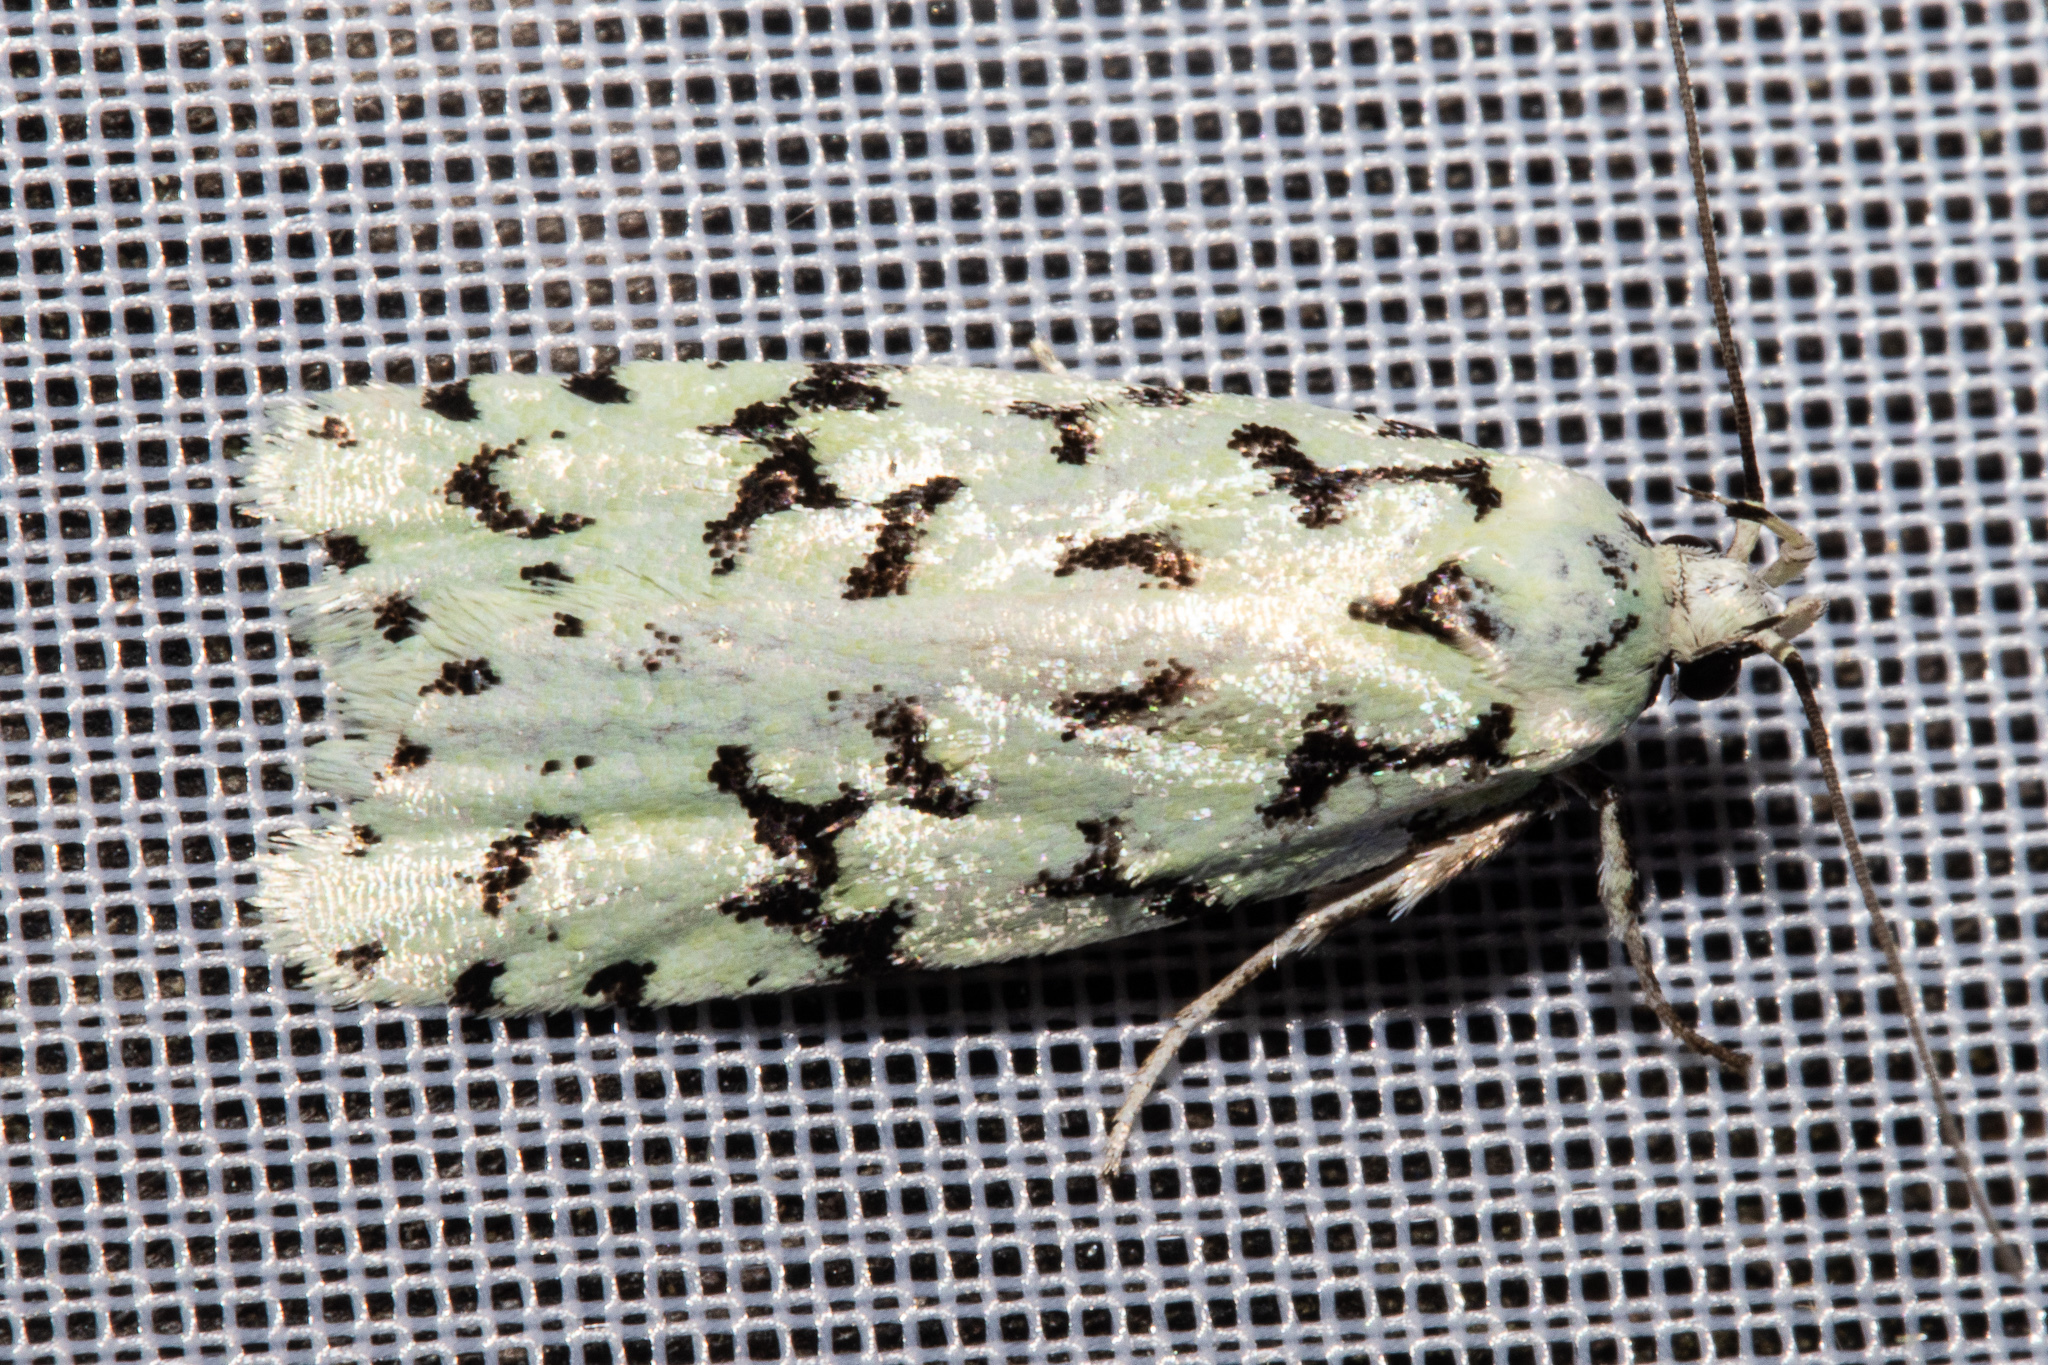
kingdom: Animalia
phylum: Arthropoda
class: Insecta
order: Lepidoptera
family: Oecophoridae
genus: Izatha
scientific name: Izatha huttoni
